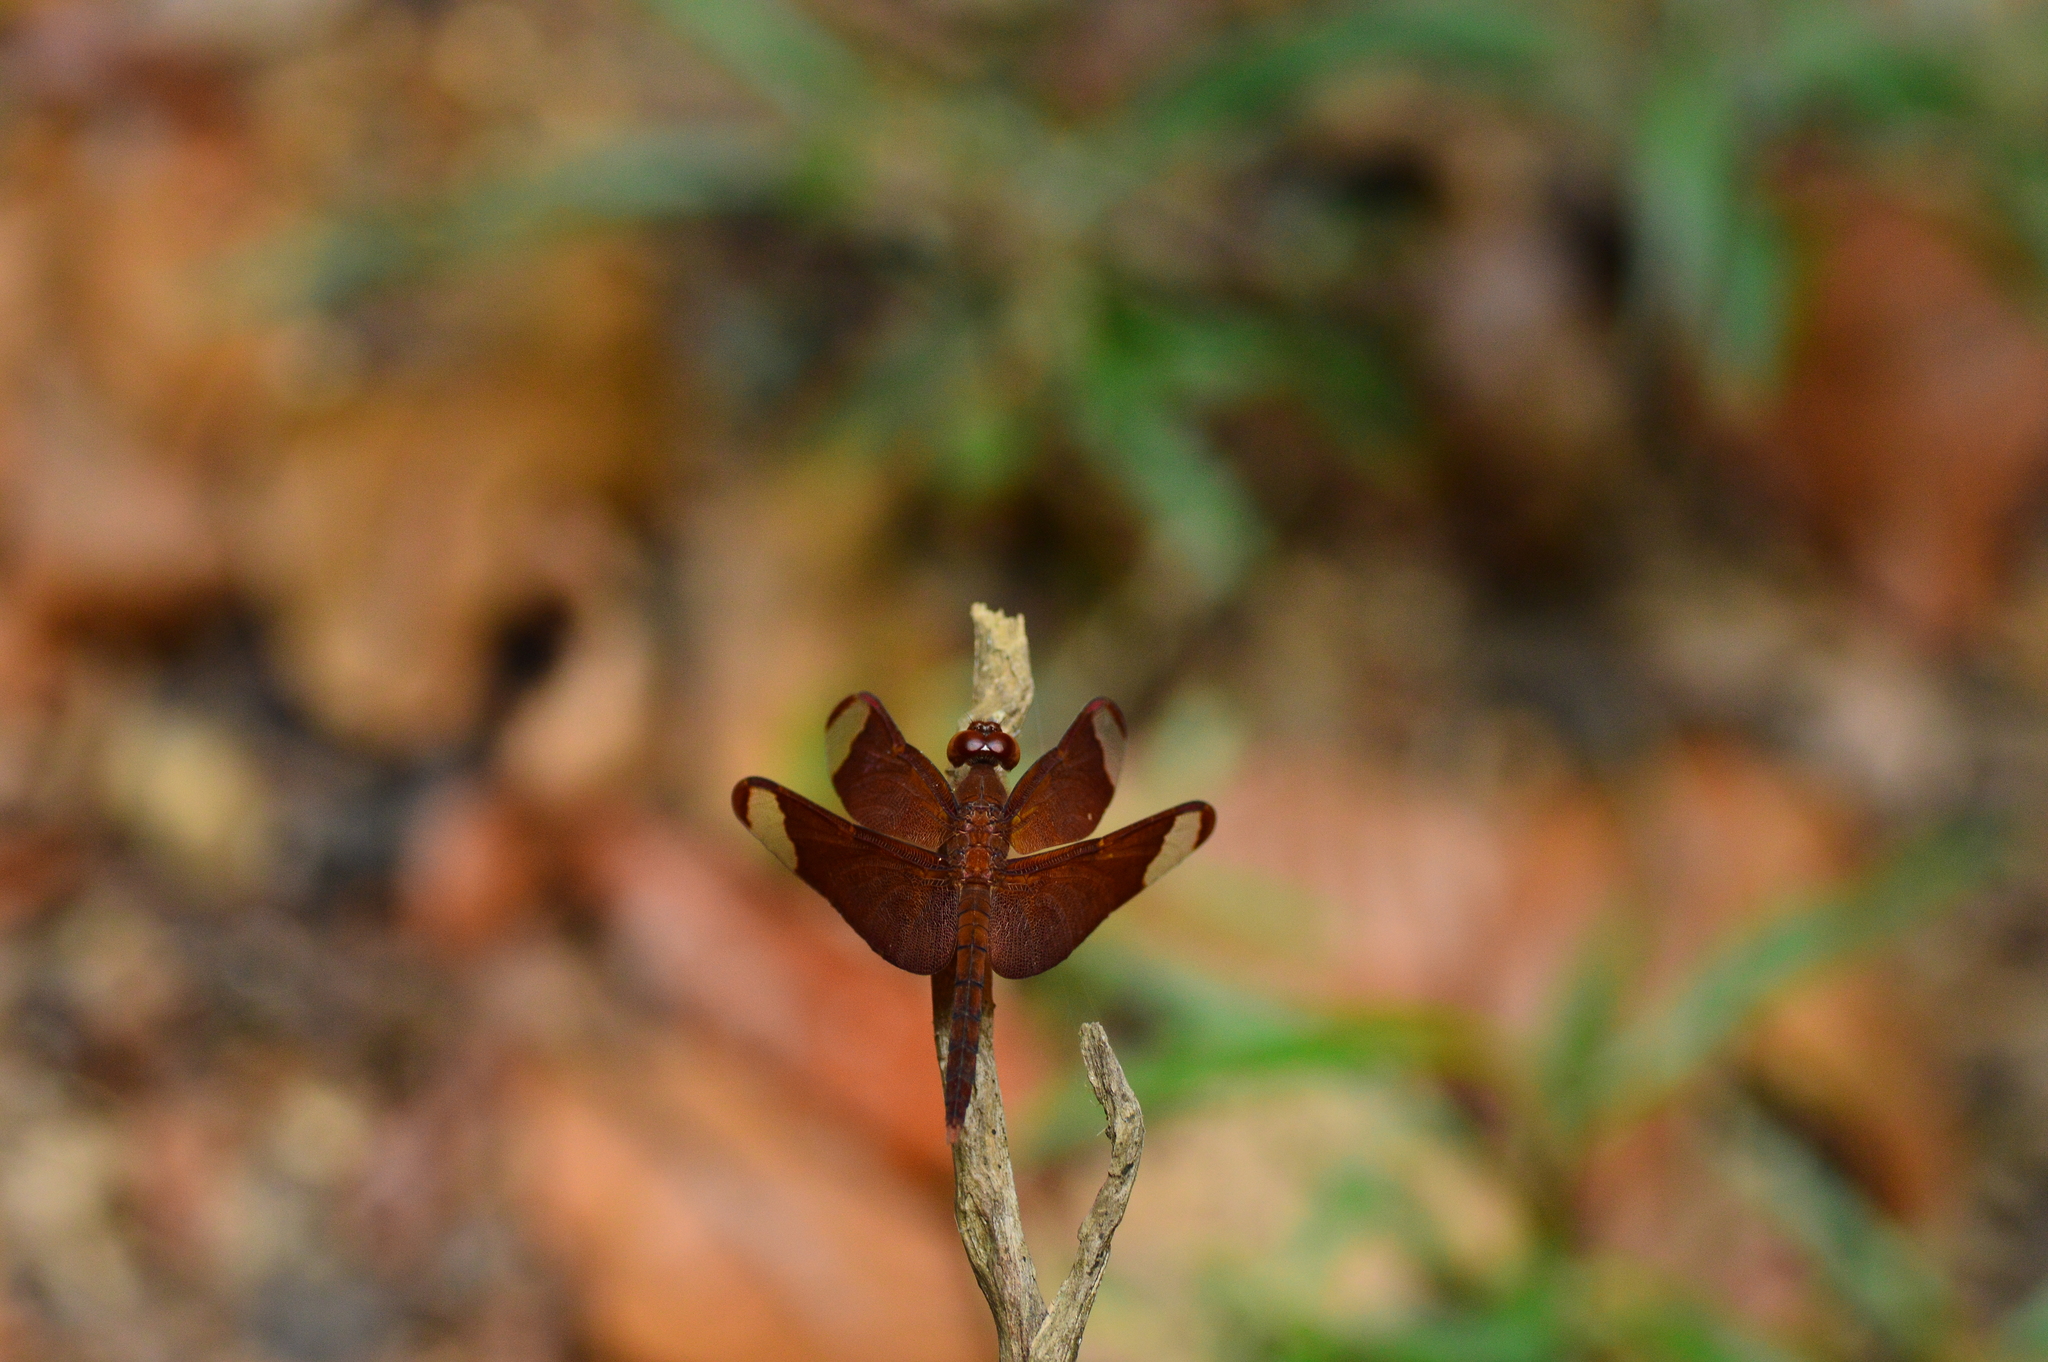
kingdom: Animalia
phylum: Arthropoda
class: Insecta
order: Odonata
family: Libellulidae
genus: Neurothemis
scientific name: Neurothemis fulvia
